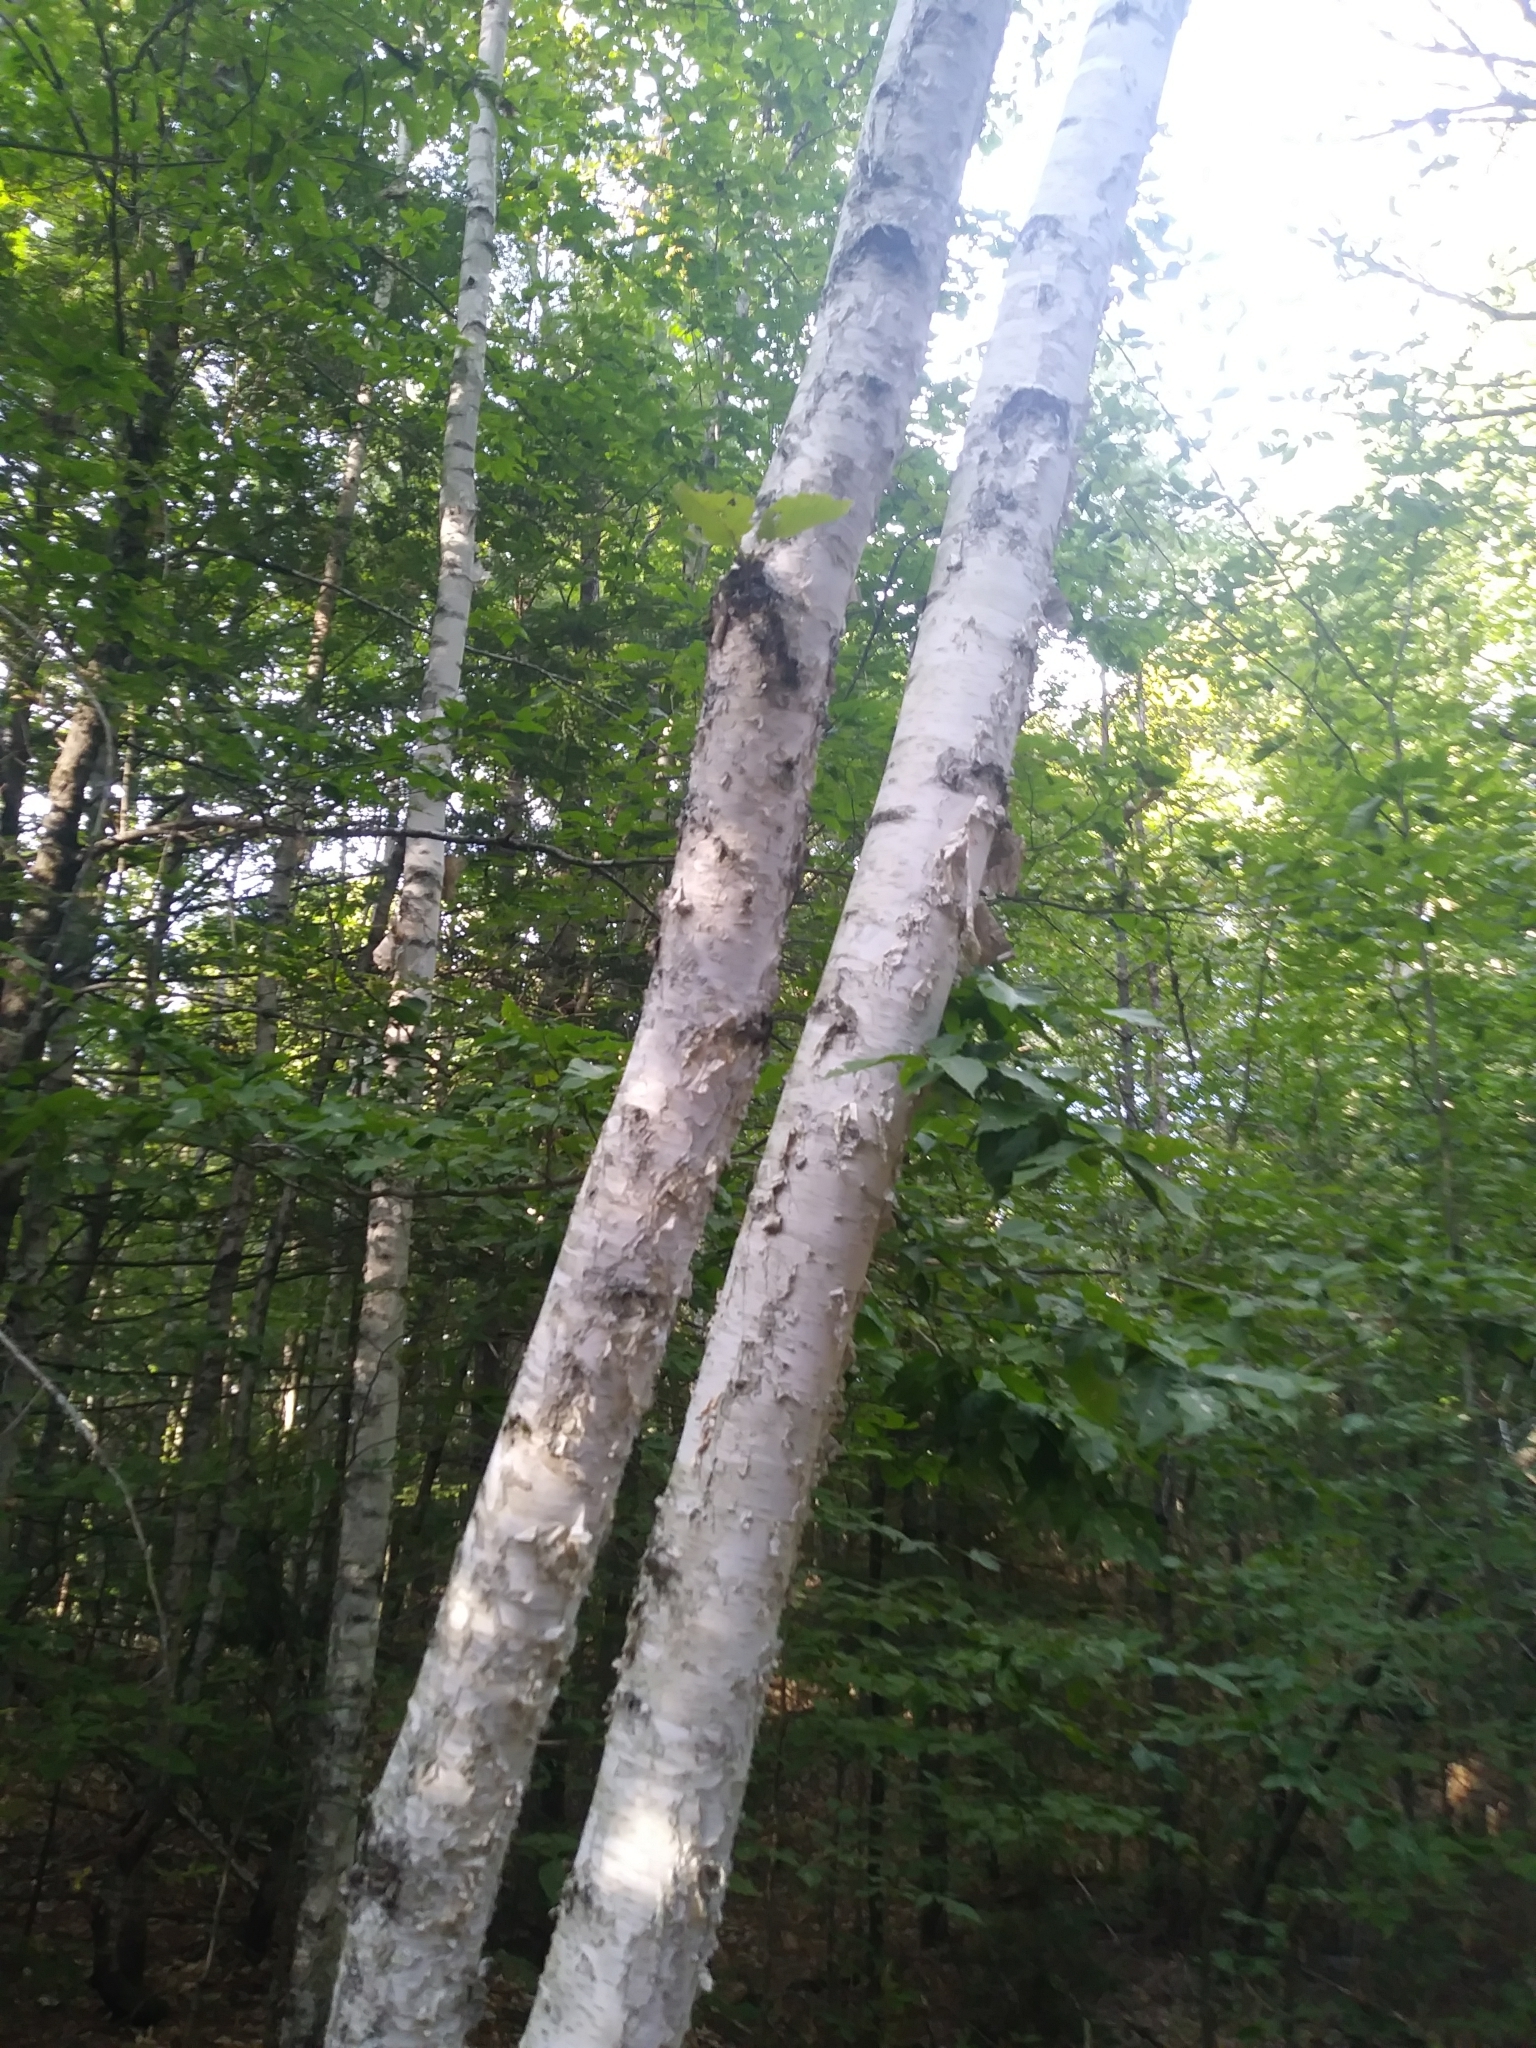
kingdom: Plantae
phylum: Tracheophyta
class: Magnoliopsida
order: Fagales
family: Betulaceae
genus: Betula
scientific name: Betula papyrifera
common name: Paper birch
